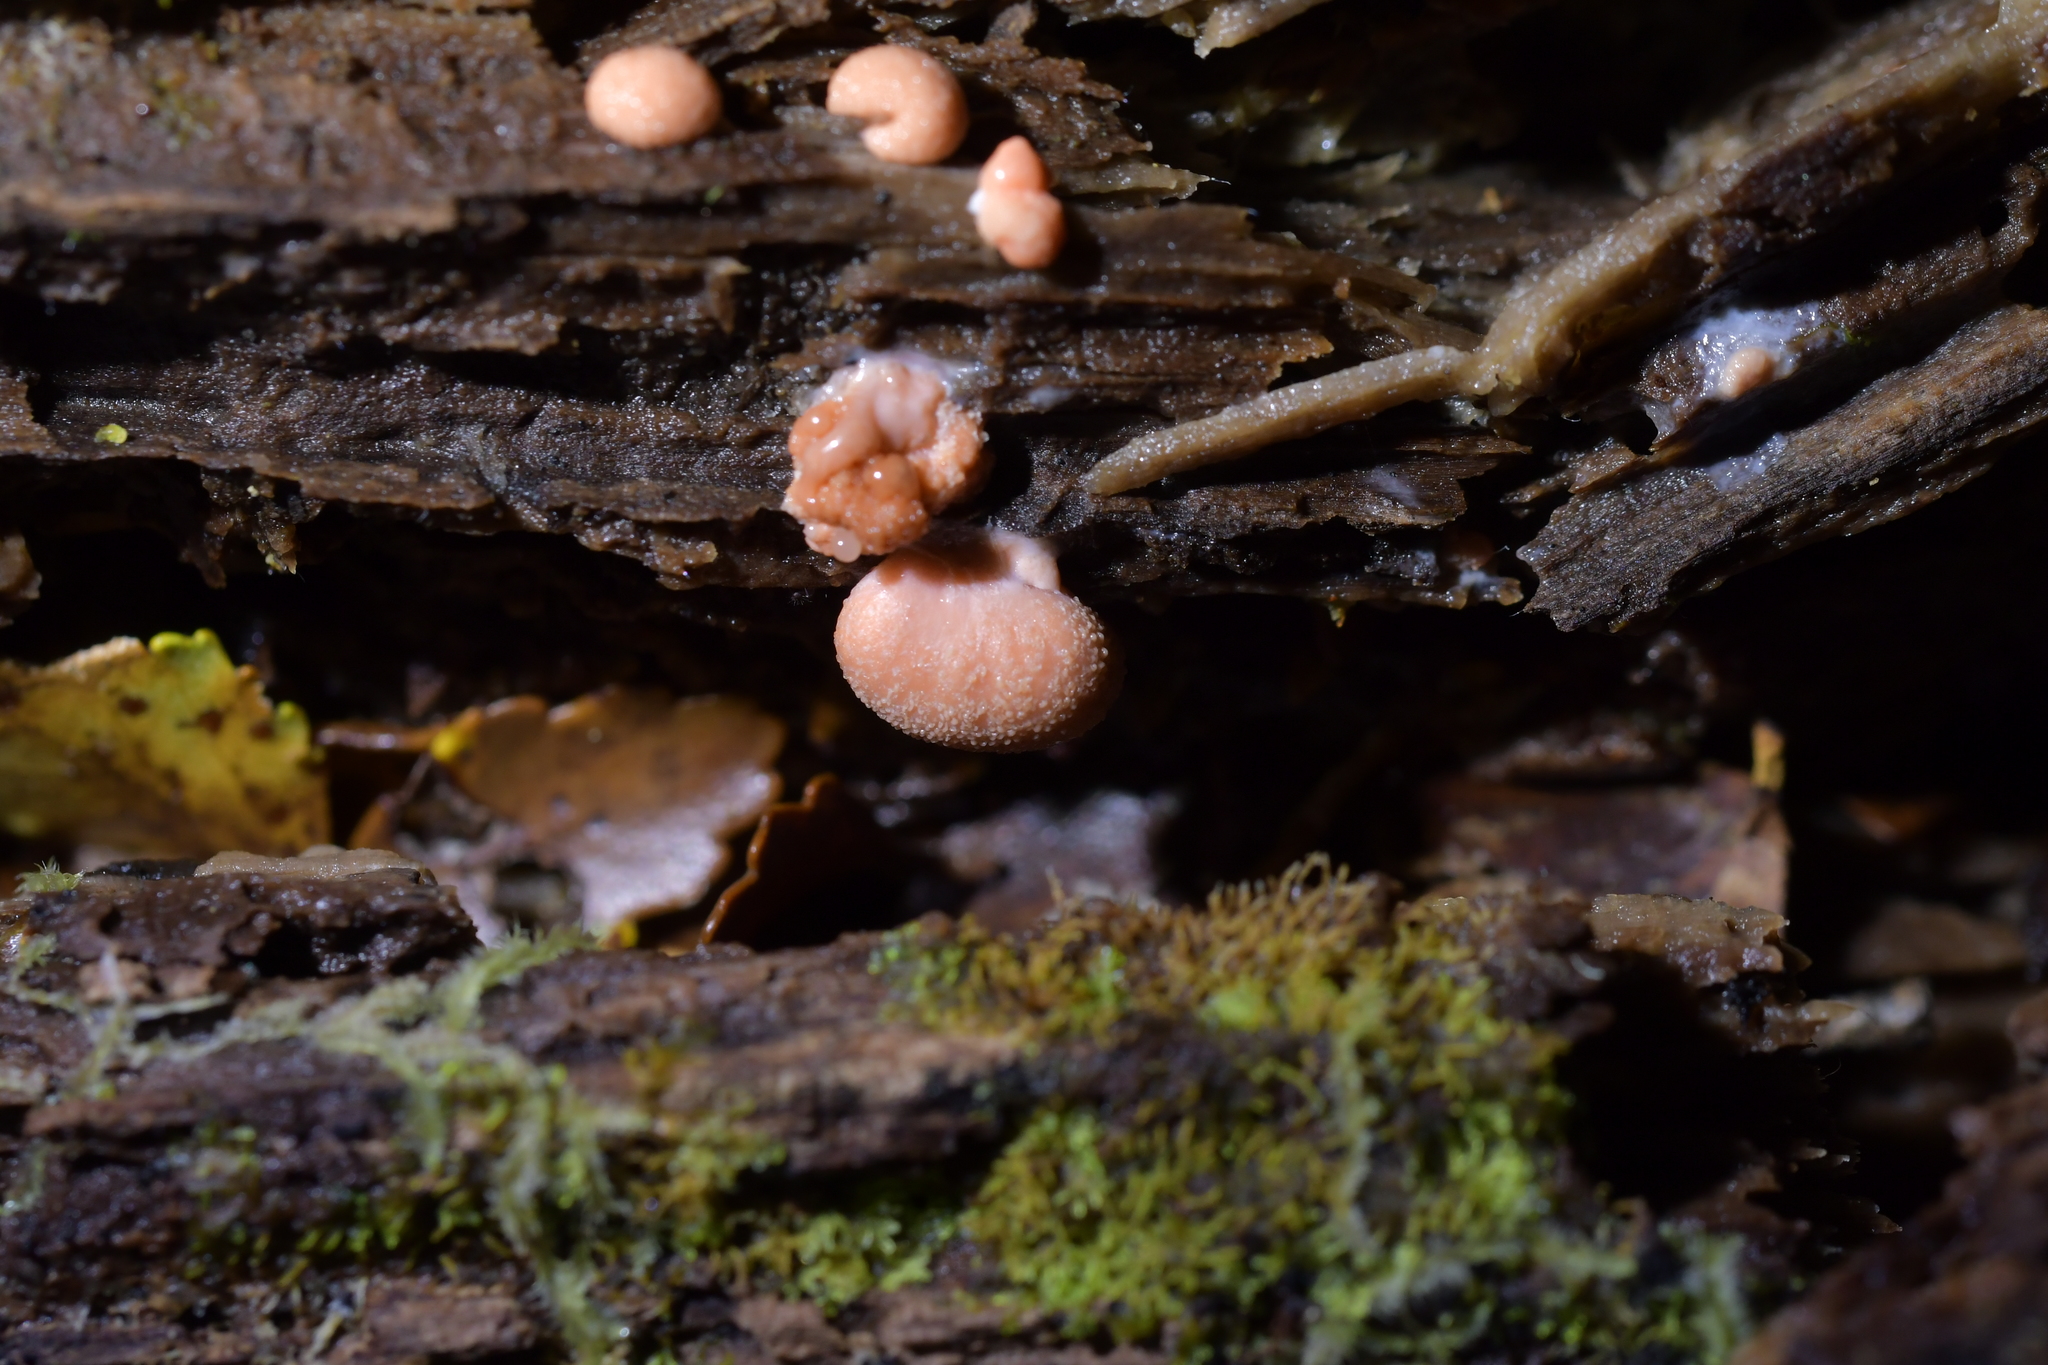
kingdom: Protozoa
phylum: Mycetozoa
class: Myxomycetes
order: Cribrariales
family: Tubiferaceae
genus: Lycogala
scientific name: Lycogala epidendrum
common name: Wolf's milk
